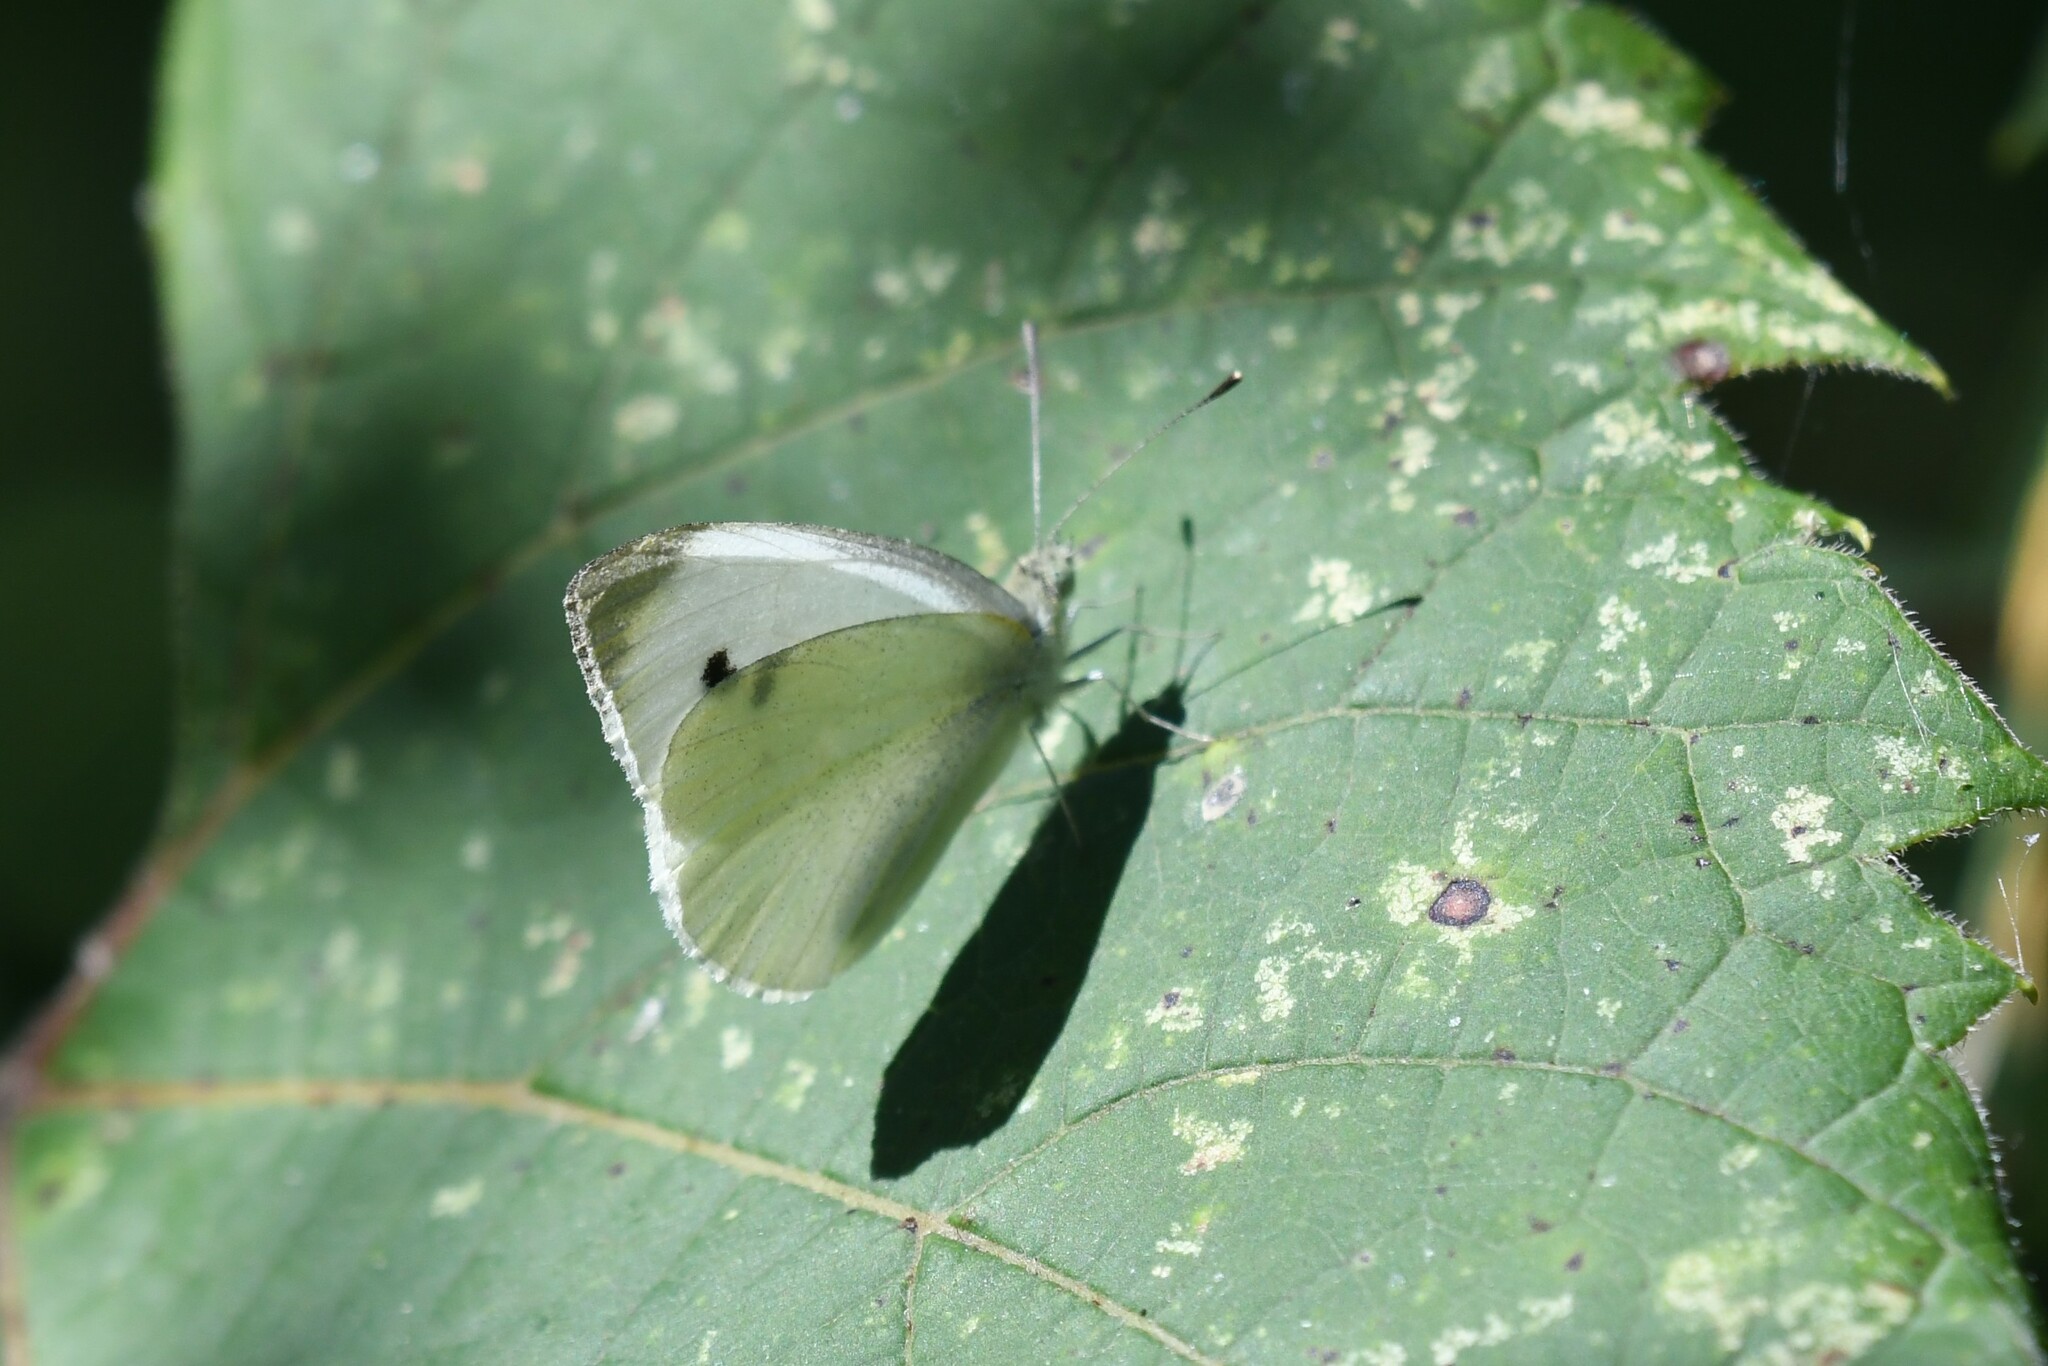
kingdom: Animalia
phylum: Arthropoda
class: Insecta
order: Lepidoptera
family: Pieridae
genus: Pieris
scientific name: Pieris rapae
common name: Small white
